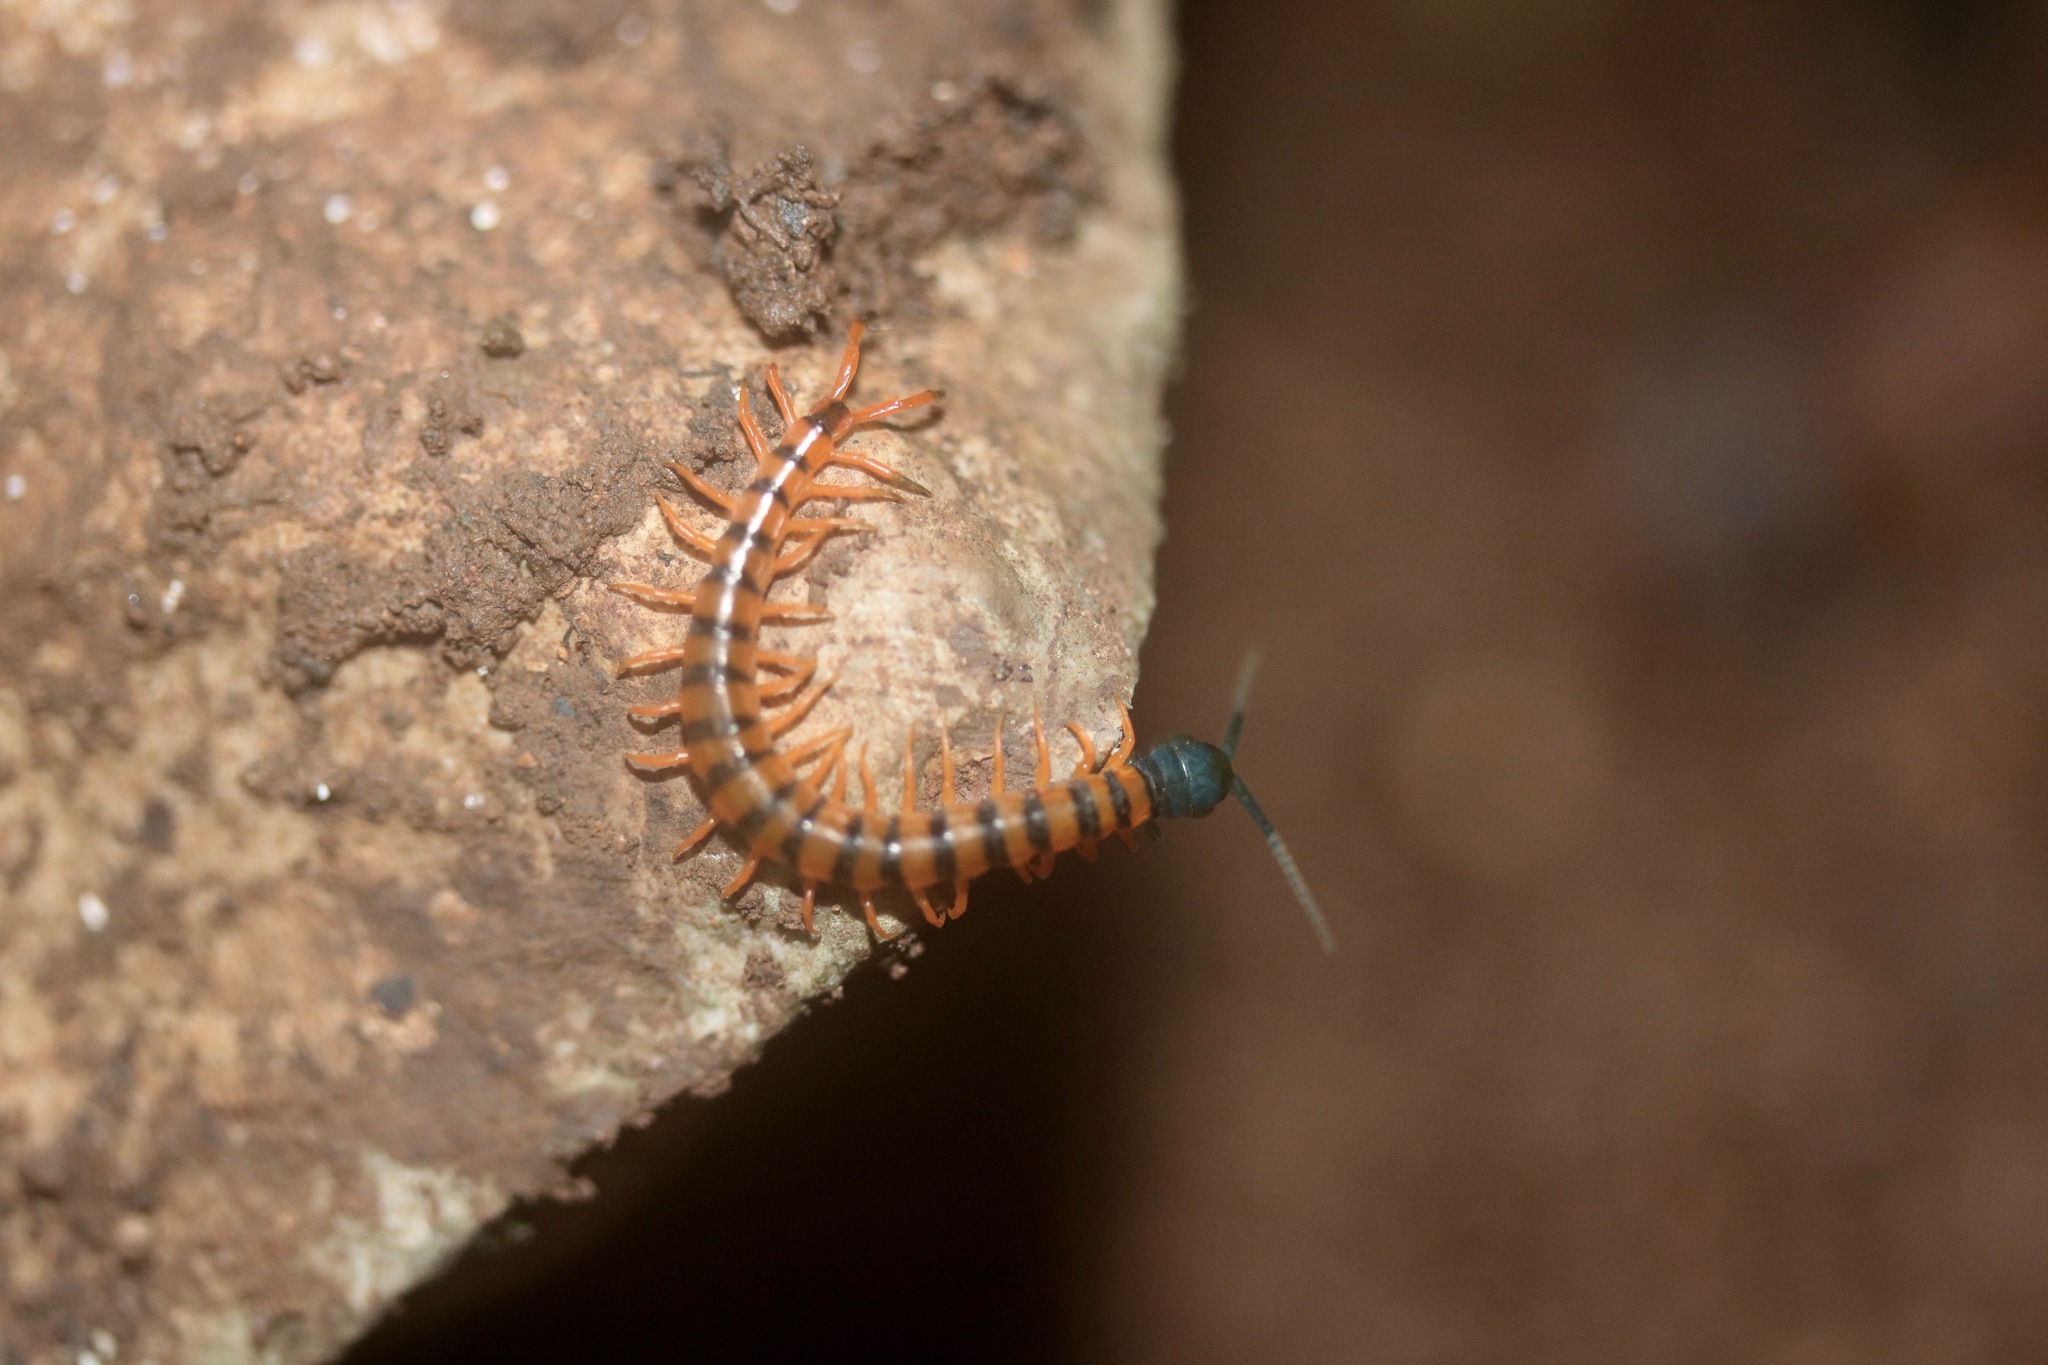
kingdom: Animalia
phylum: Arthropoda
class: Chilopoda
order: Scolopendromorpha
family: Scolopendridae
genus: Scolopendra
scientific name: Scolopendra dehaani
